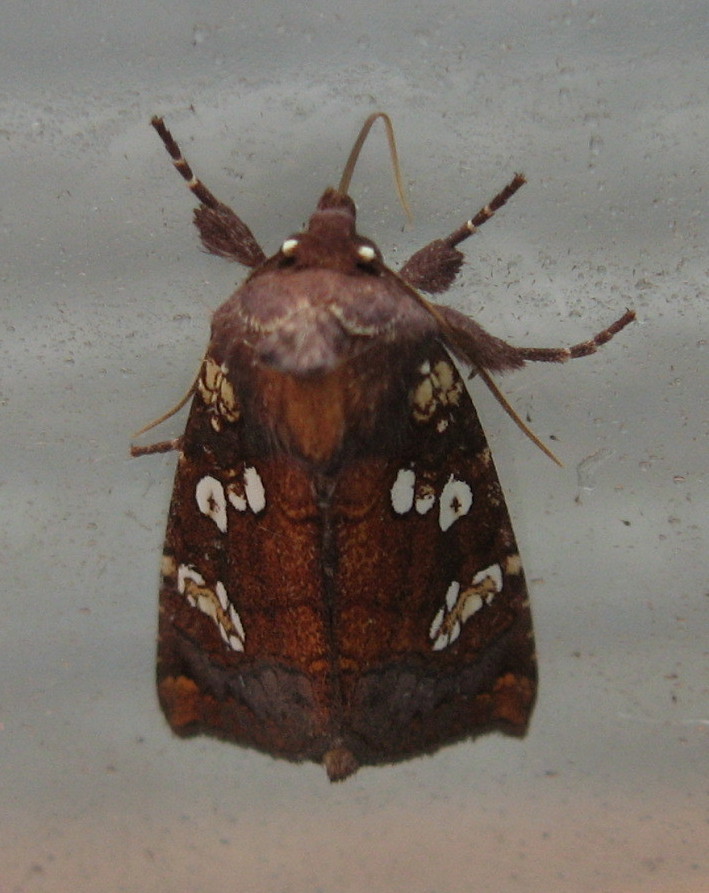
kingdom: Animalia
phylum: Arthropoda
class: Insecta
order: Lepidoptera
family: Noctuidae
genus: Papaipema
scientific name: Papaipema insulidens
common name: Ragwort stem borer moth
